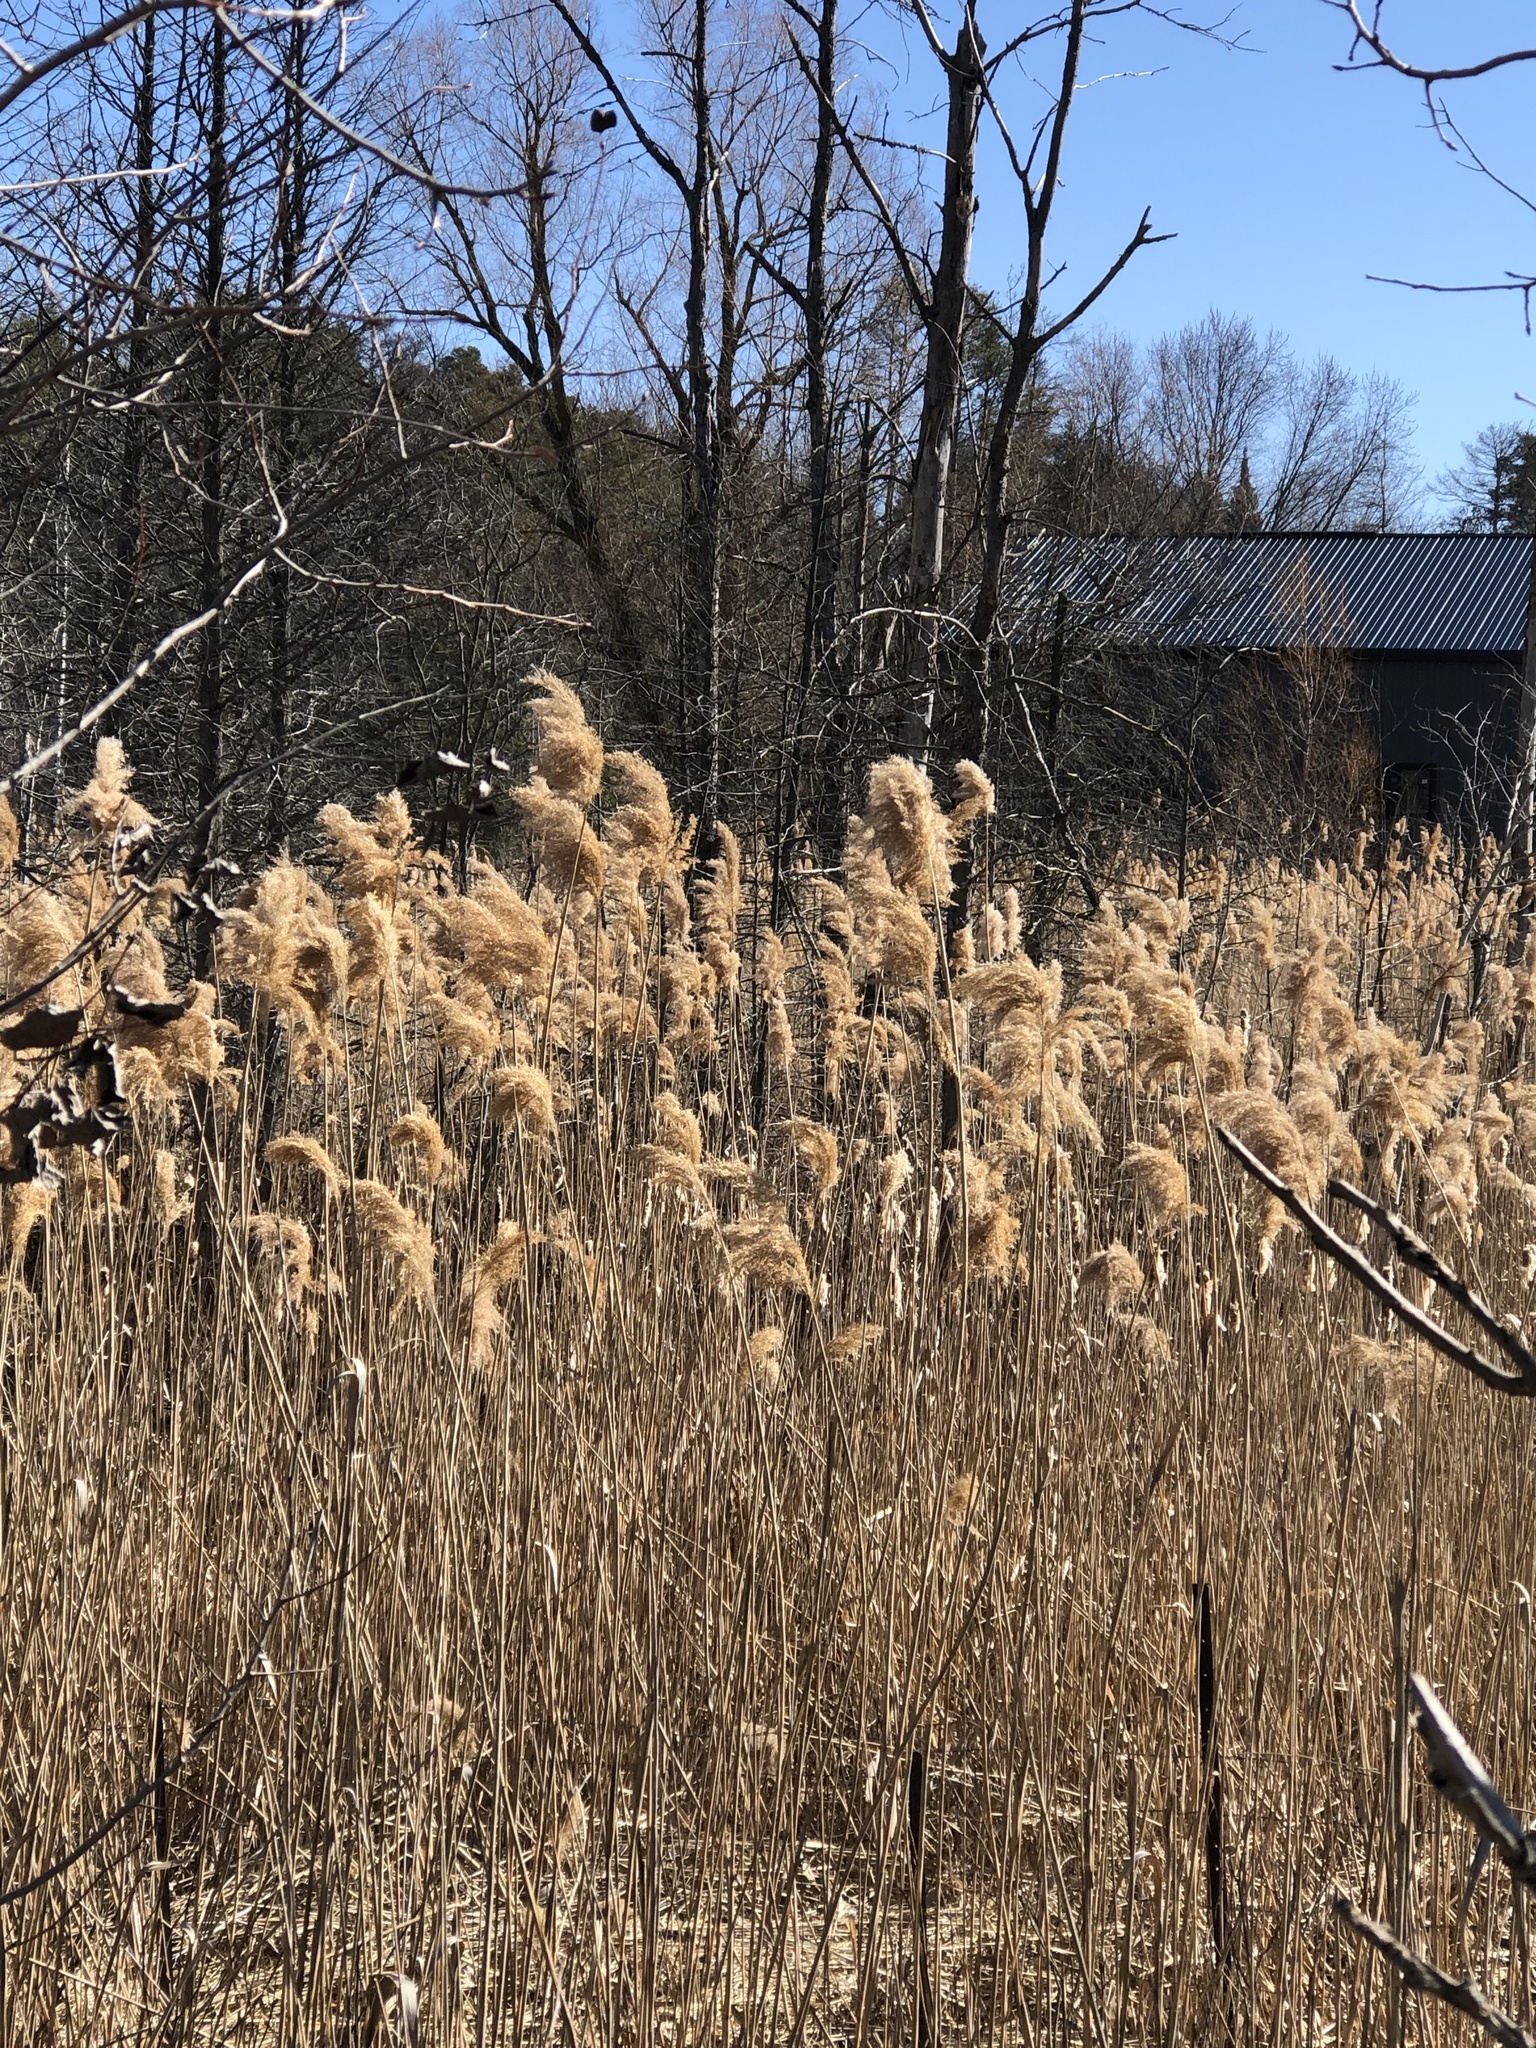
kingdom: Plantae
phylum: Tracheophyta
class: Liliopsida
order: Poales
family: Poaceae
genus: Phragmites
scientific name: Phragmites australis
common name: Common reed
